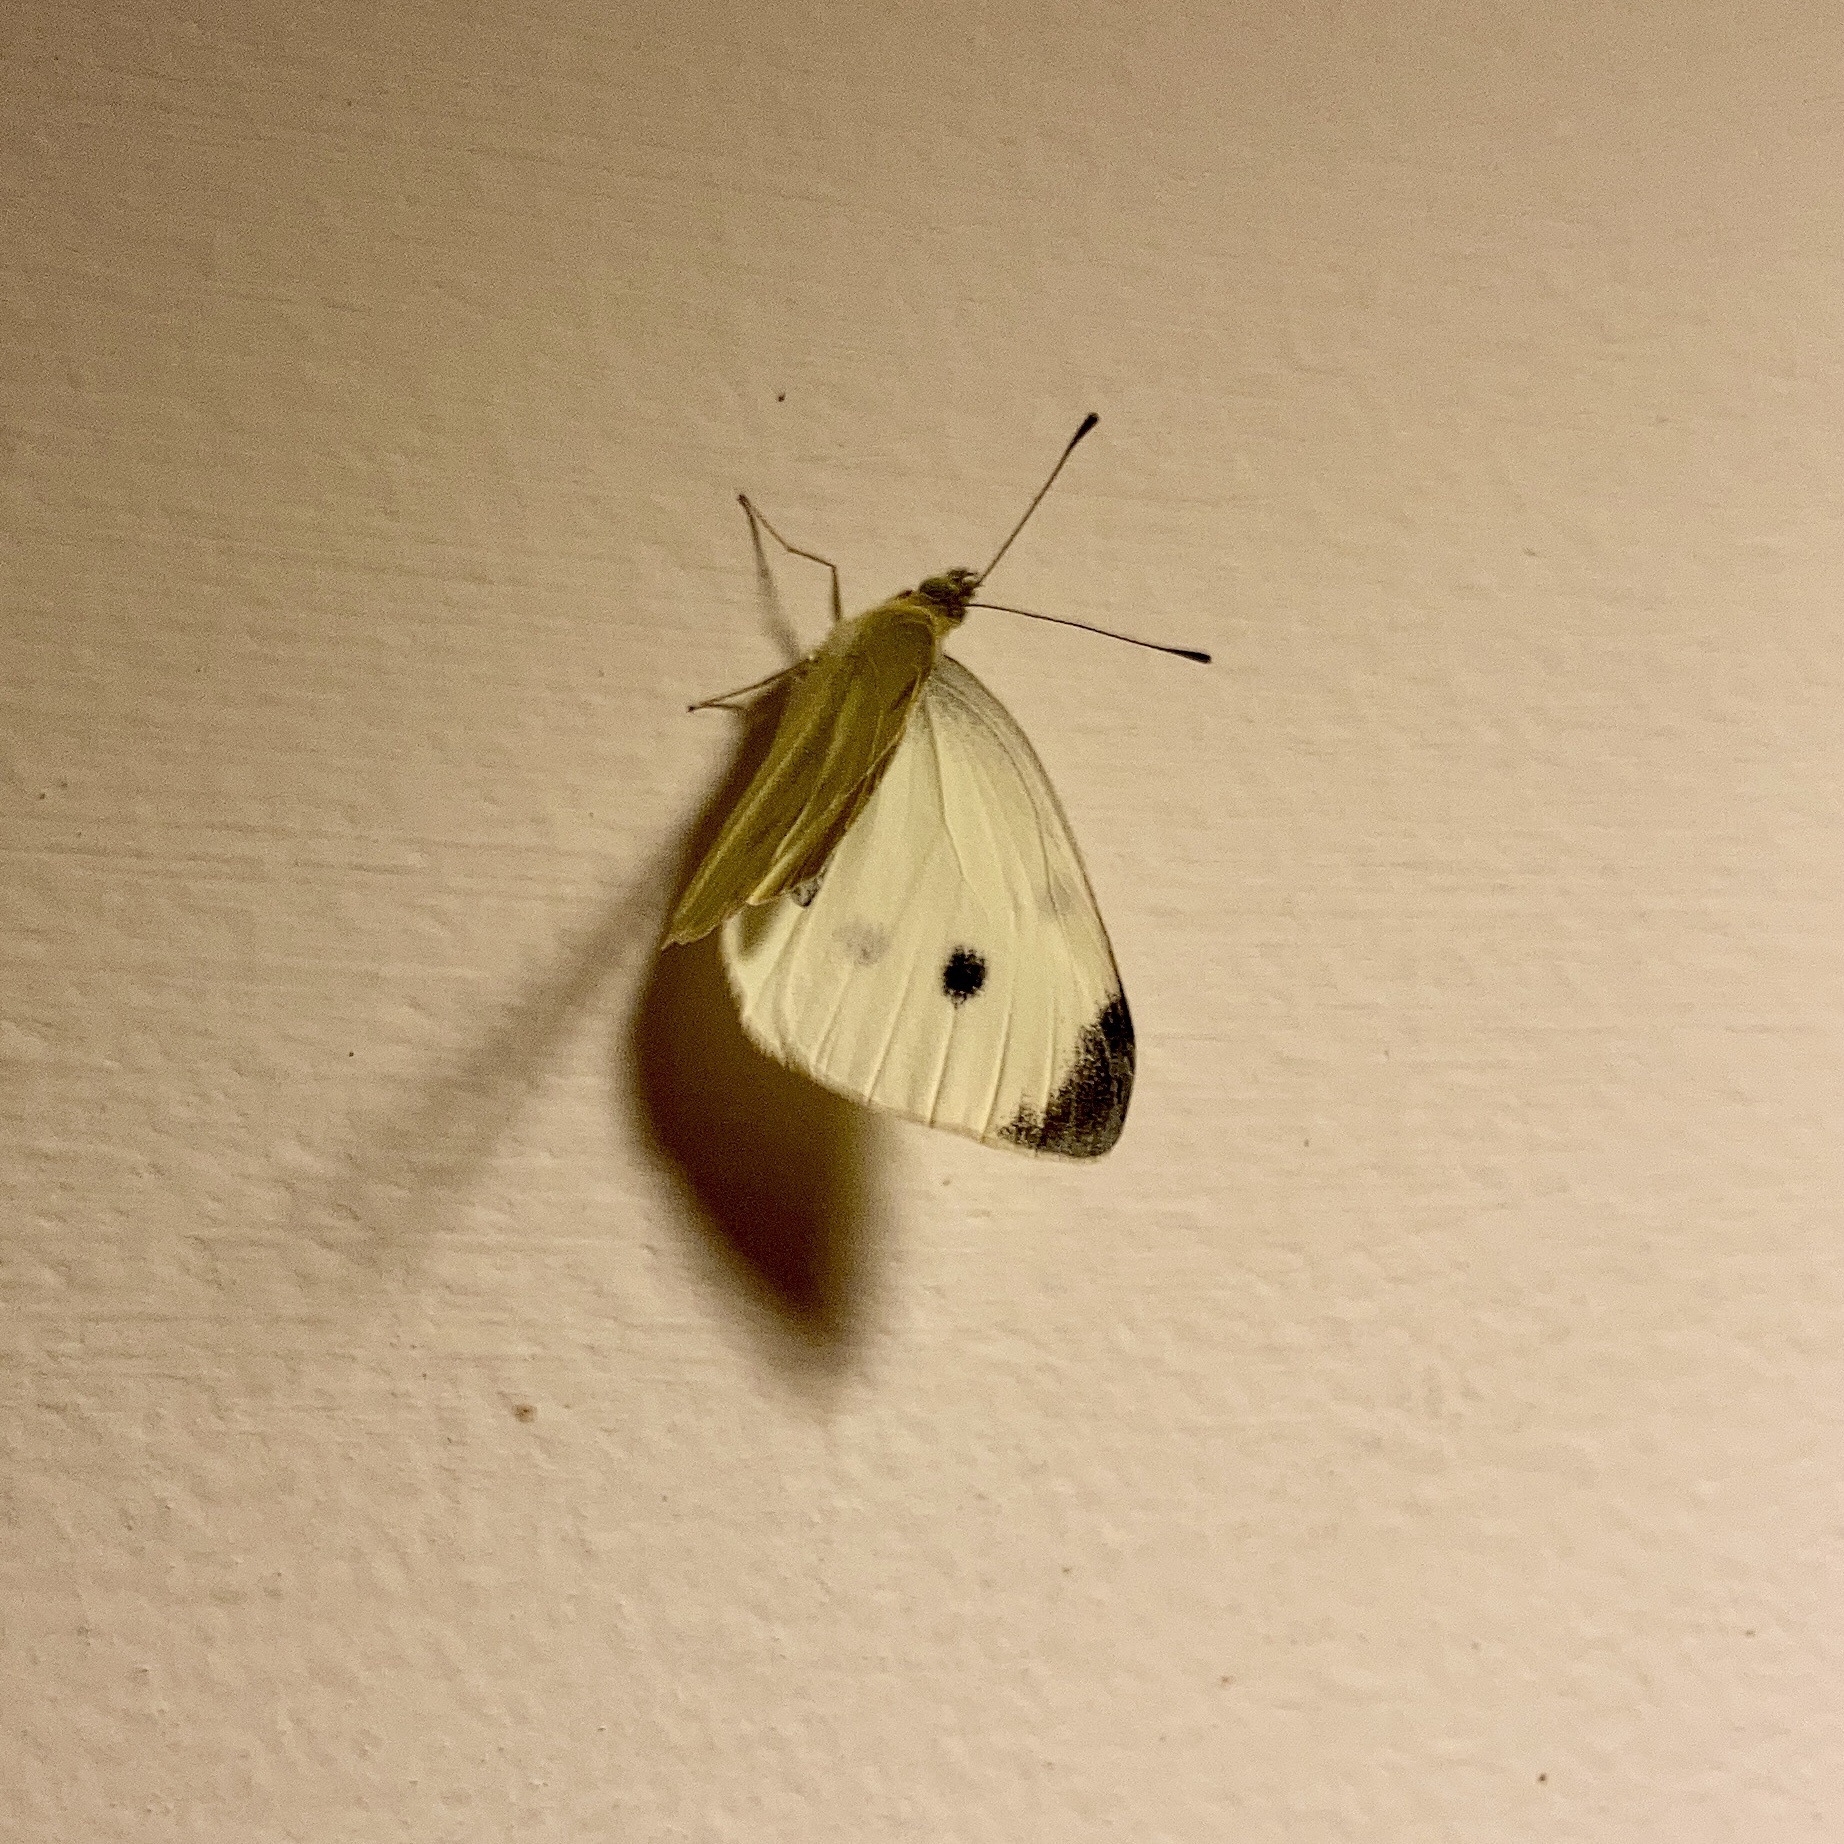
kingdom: Animalia
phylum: Arthropoda
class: Insecta
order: Lepidoptera
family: Pieridae
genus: Pieris
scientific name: Pieris rapae
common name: Small white
